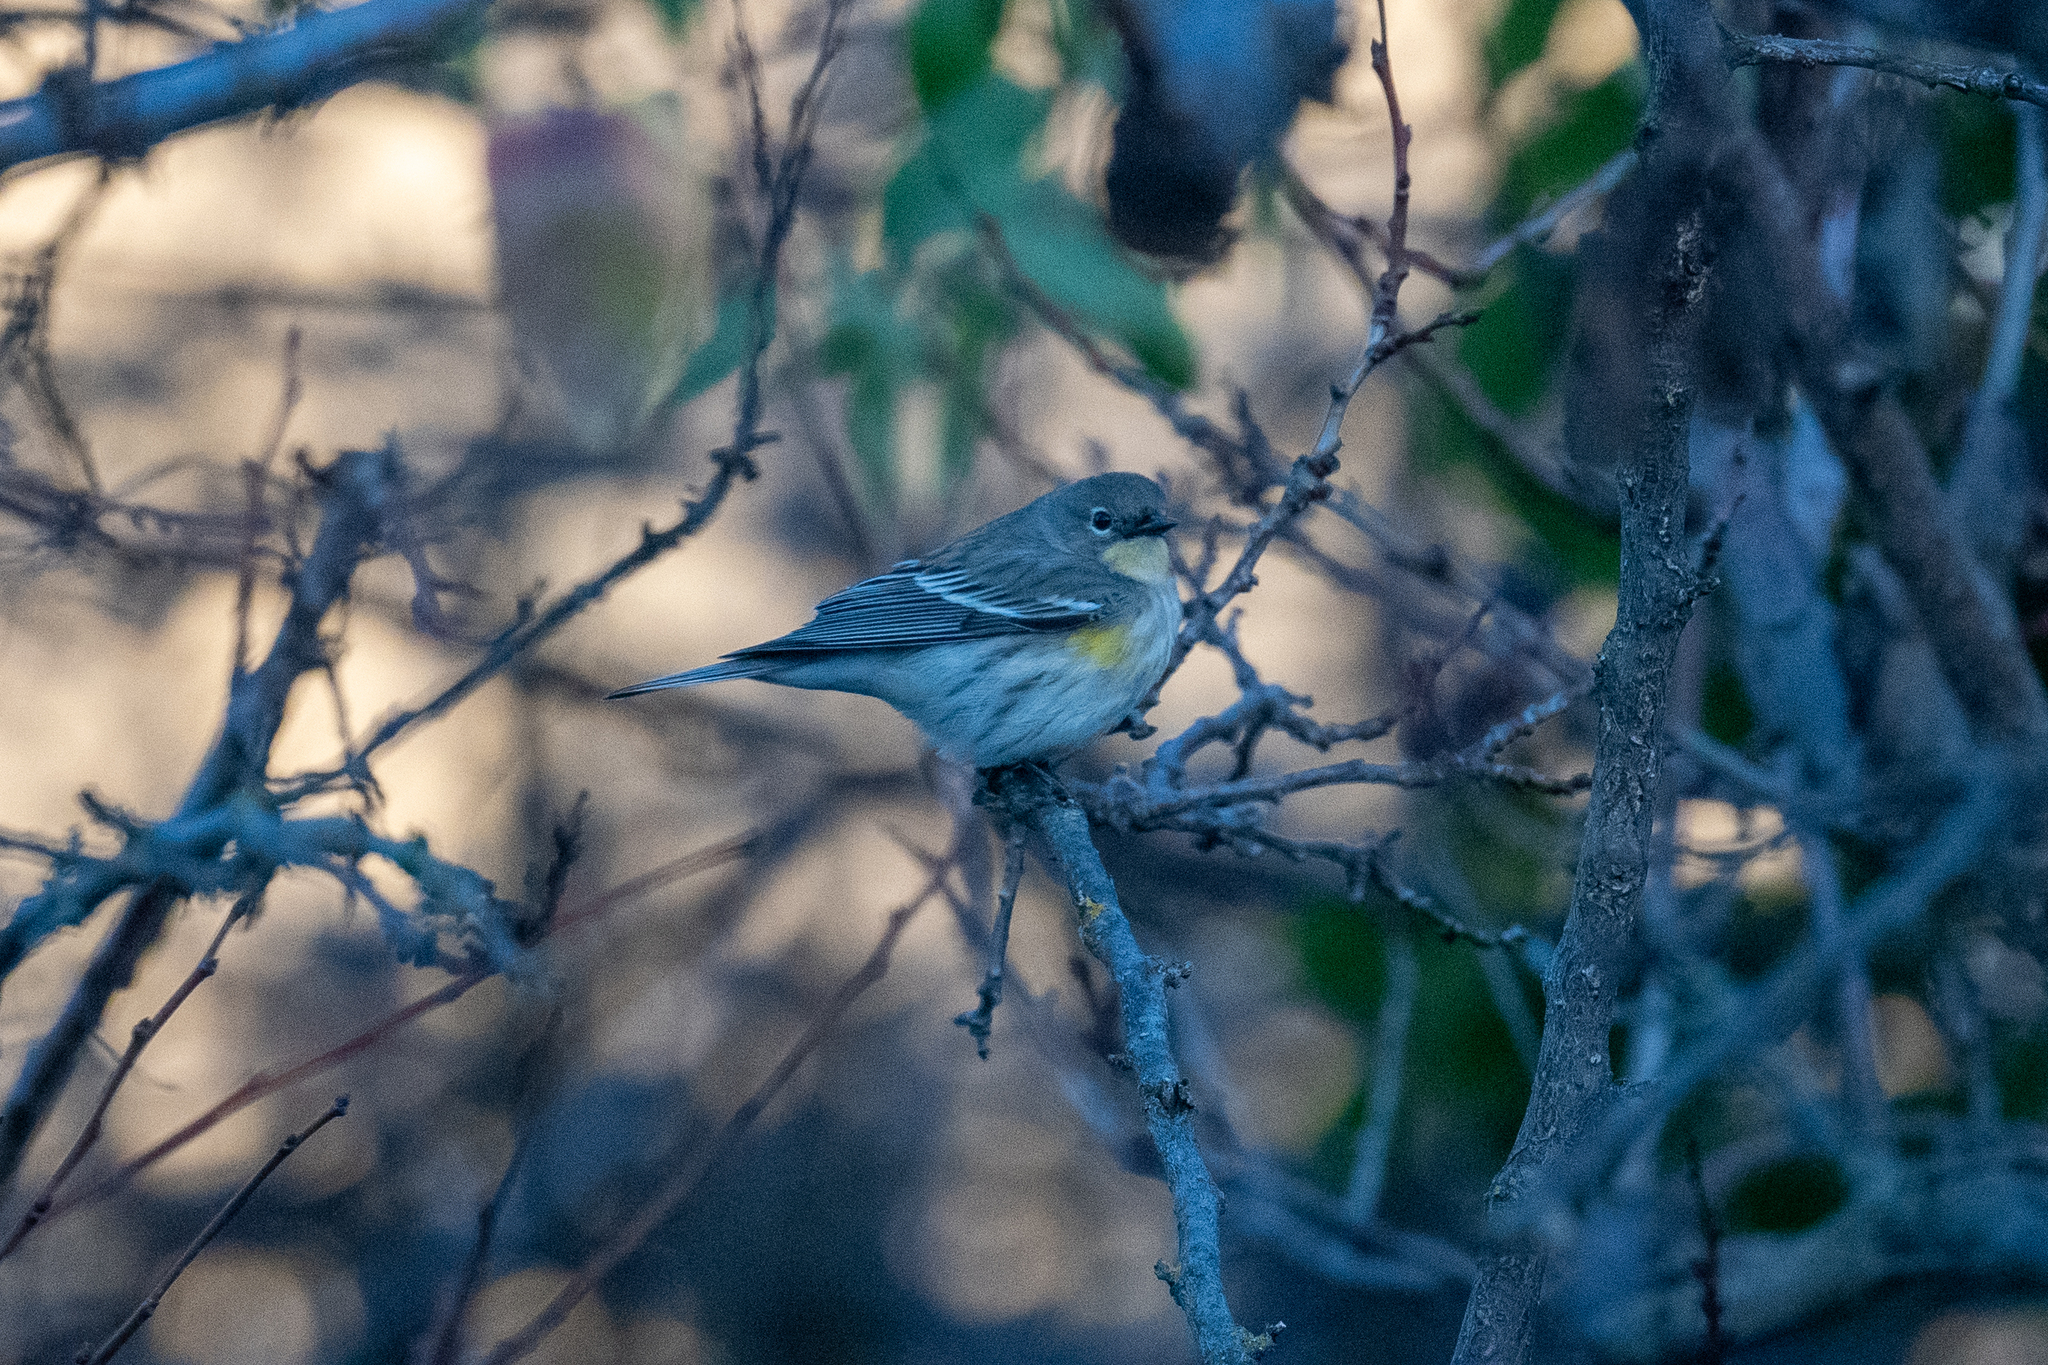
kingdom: Animalia
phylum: Chordata
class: Aves
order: Passeriformes
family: Parulidae
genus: Setophaga
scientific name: Setophaga coronata
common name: Myrtle warbler
